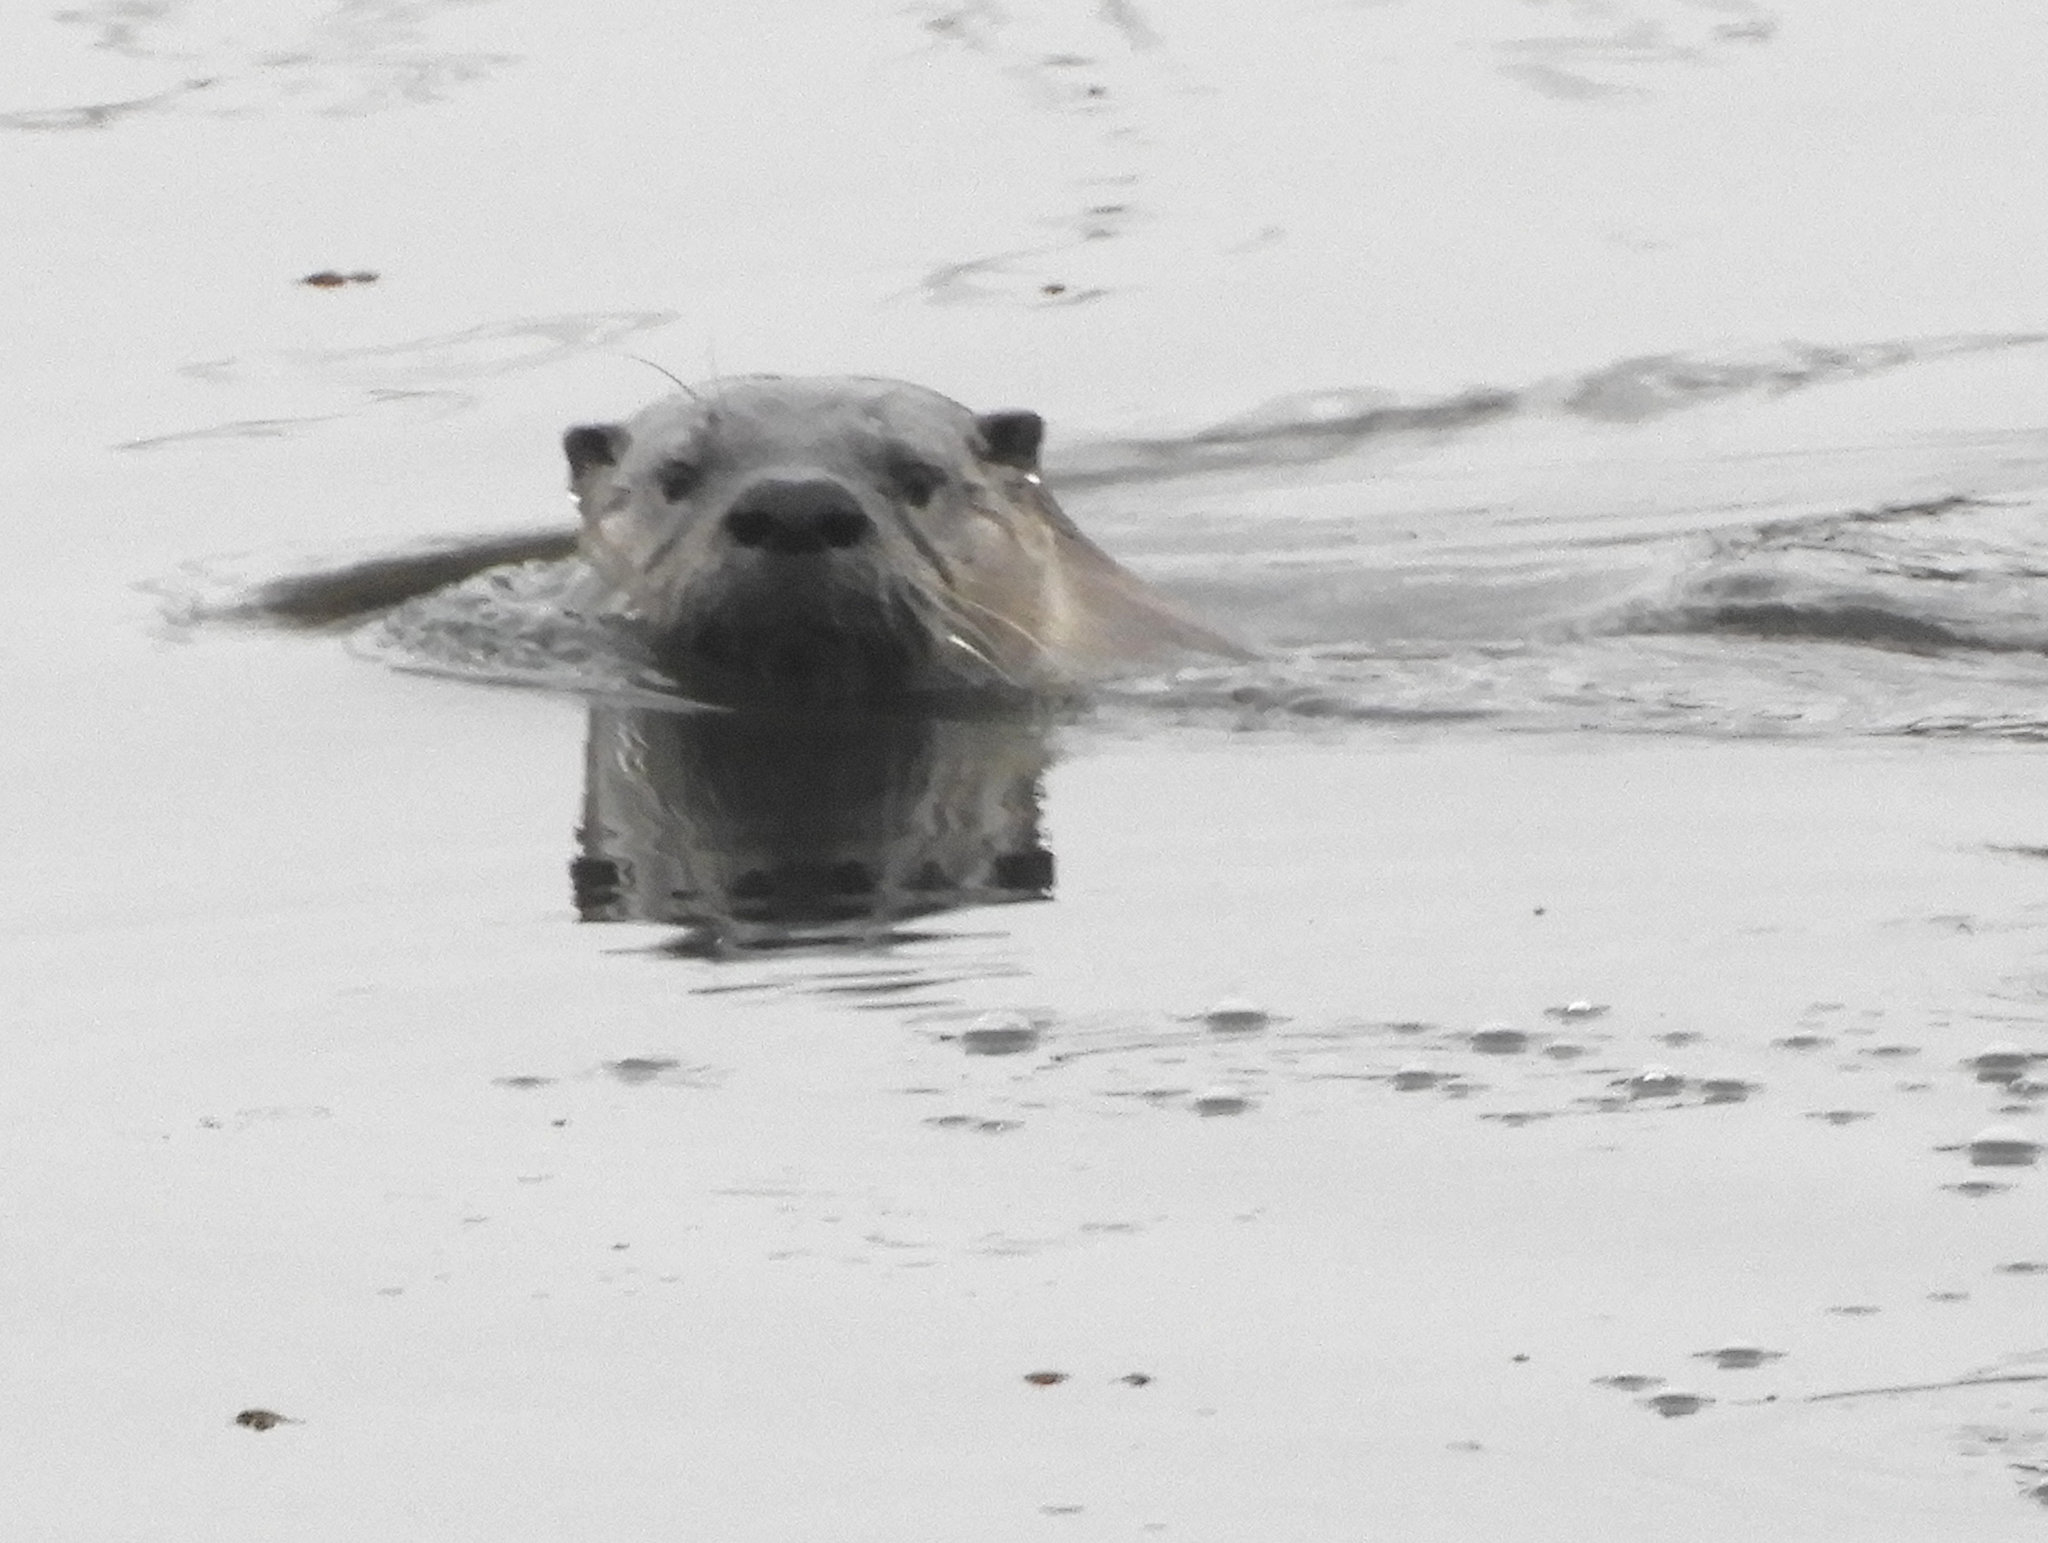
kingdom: Animalia
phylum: Chordata
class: Mammalia
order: Carnivora
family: Mustelidae
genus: Lontra
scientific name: Lontra canadensis
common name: North american river otter
